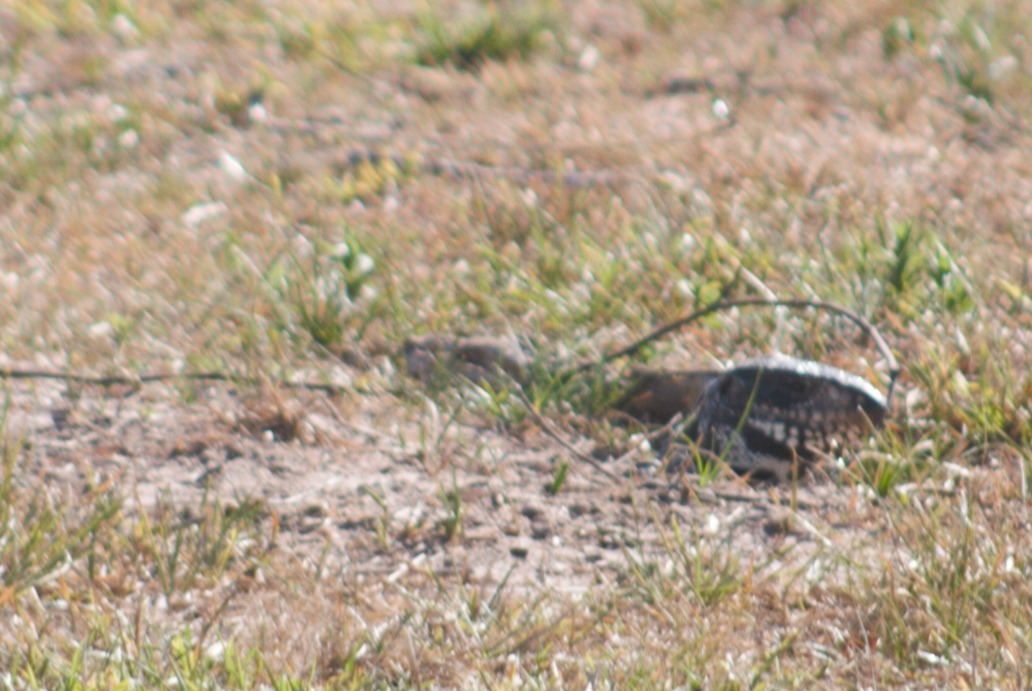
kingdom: Animalia
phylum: Chordata
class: Squamata
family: Teiidae
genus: Salvator
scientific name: Salvator merianae
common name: Argentine black and white tegu
